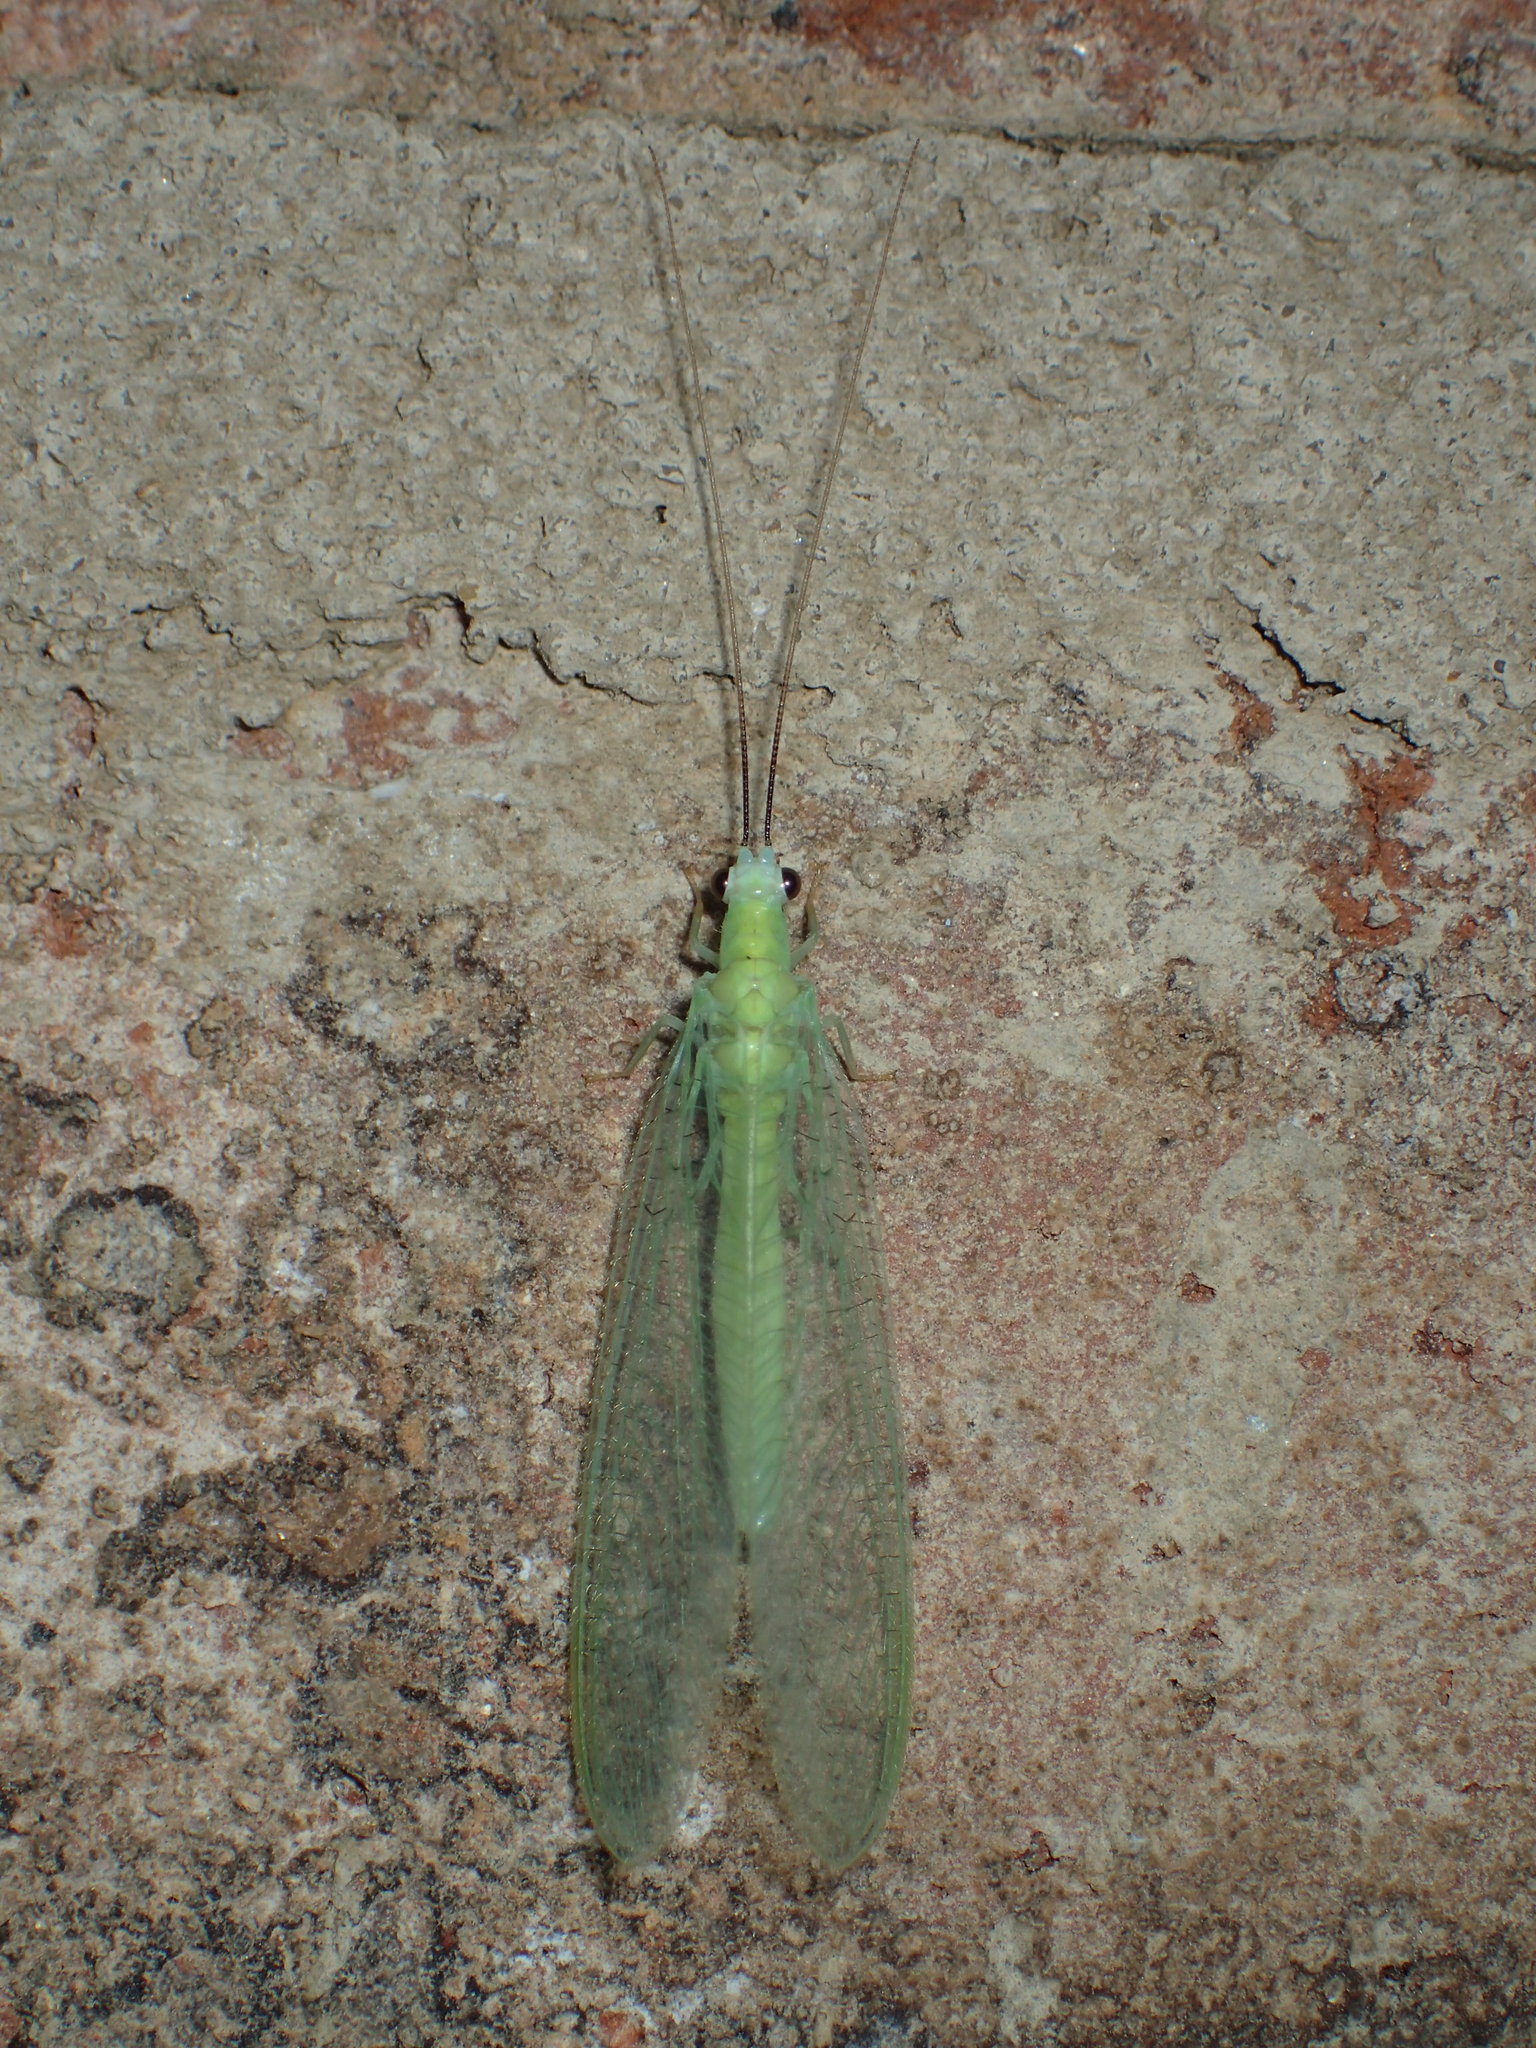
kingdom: Animalia
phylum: Arthropoda
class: Insecta
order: Neuroptera
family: Chrysopidae
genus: Chrysopa
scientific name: Chrysopa nigricornis
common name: Black-horned green lacewing
